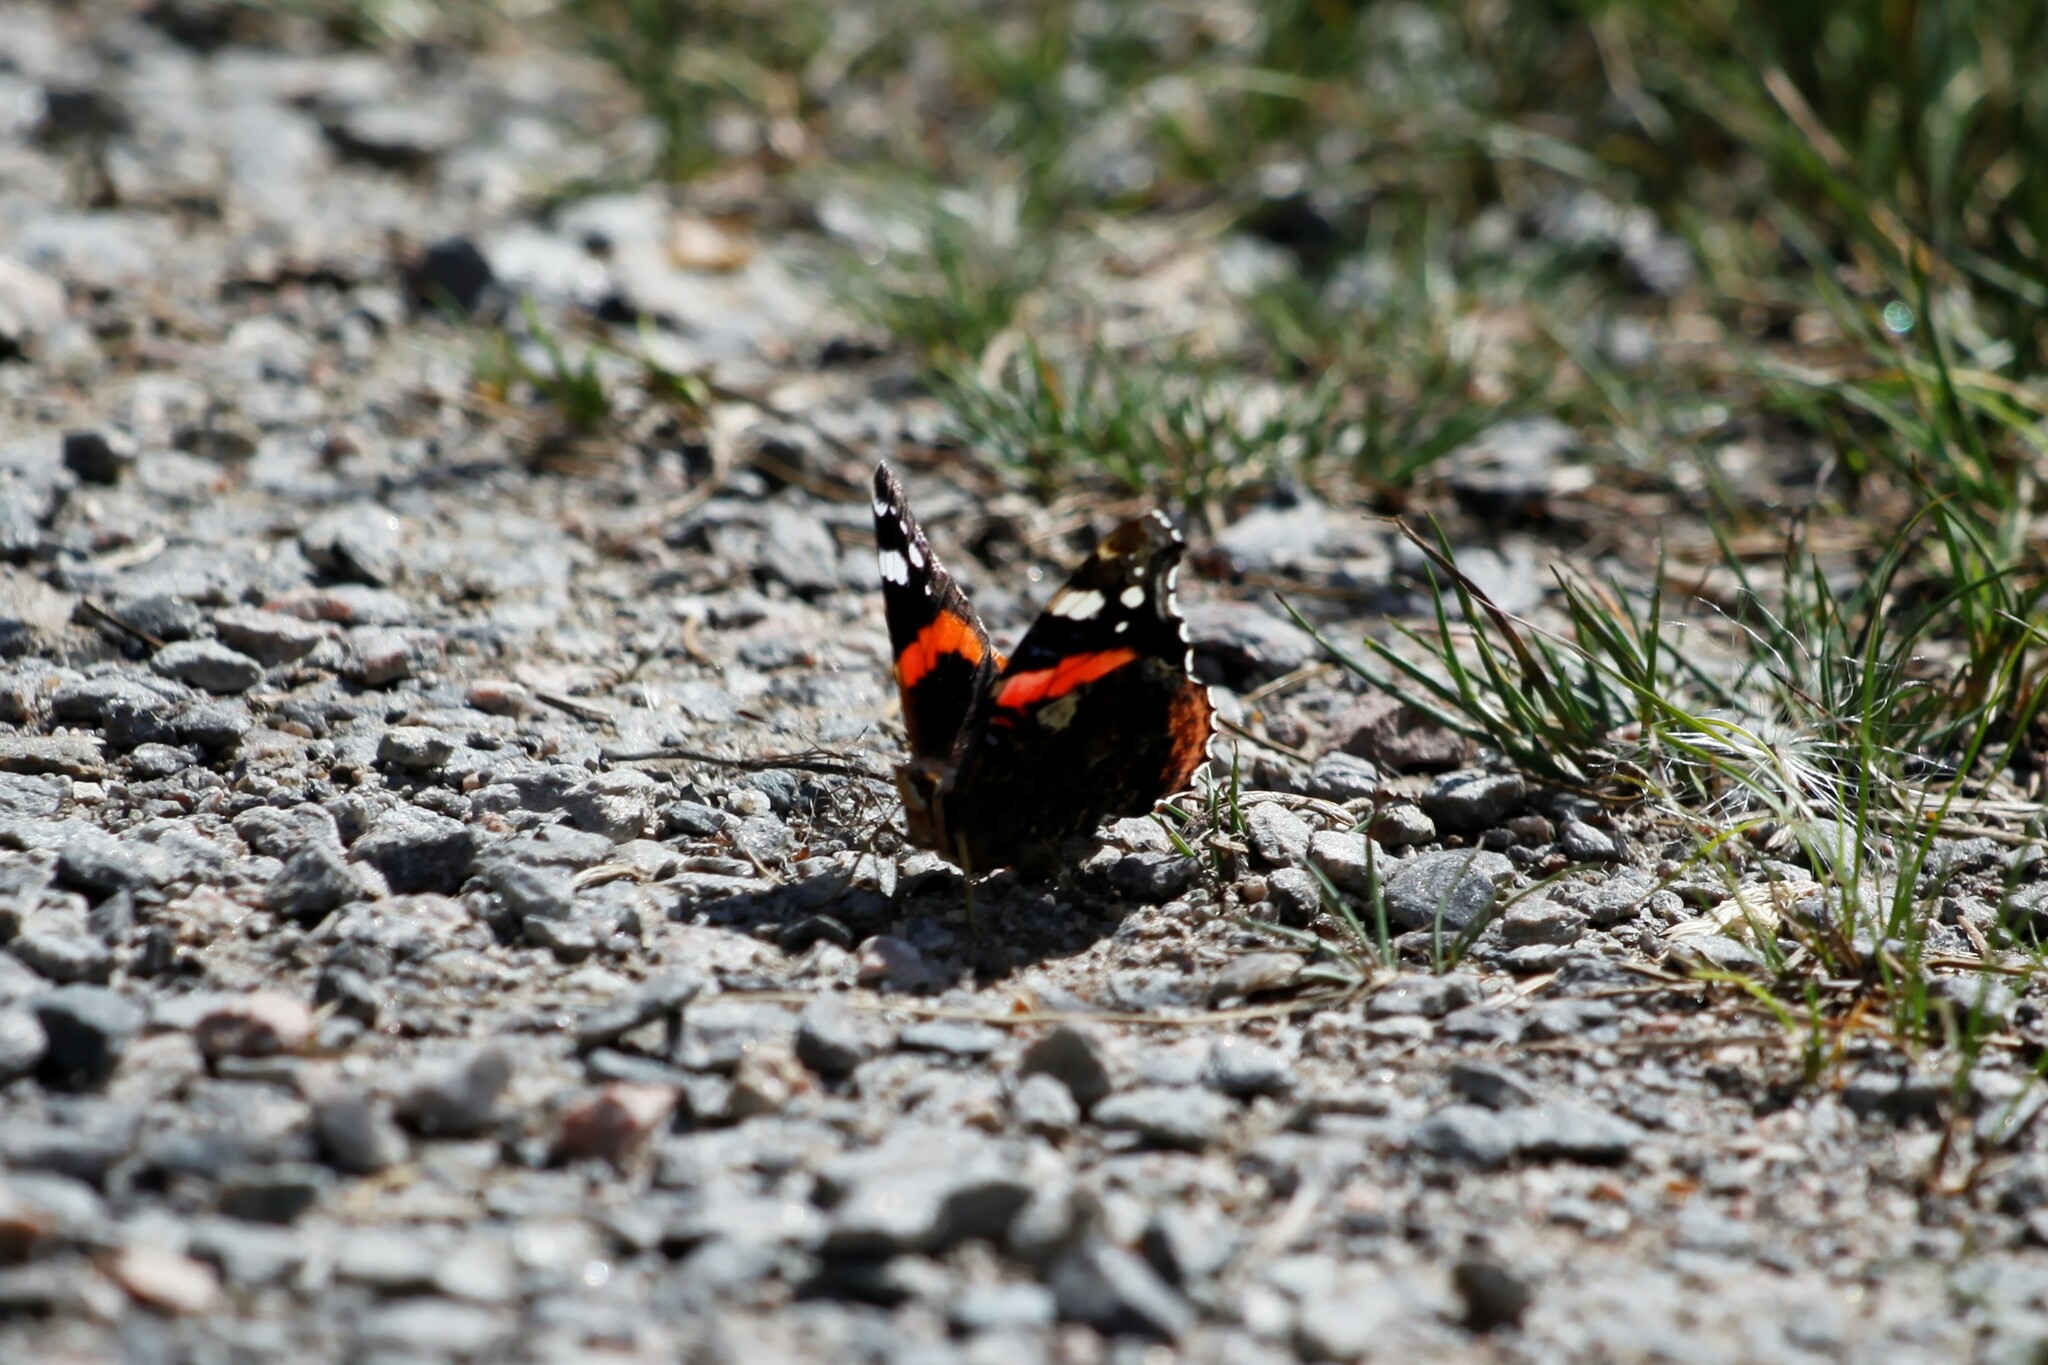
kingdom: Animalia
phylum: Arthropoda
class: Insecta
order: Lepidoptera
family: Nymphalidae
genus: Vanessa
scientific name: Vanessa atalanta
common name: Red admiral
